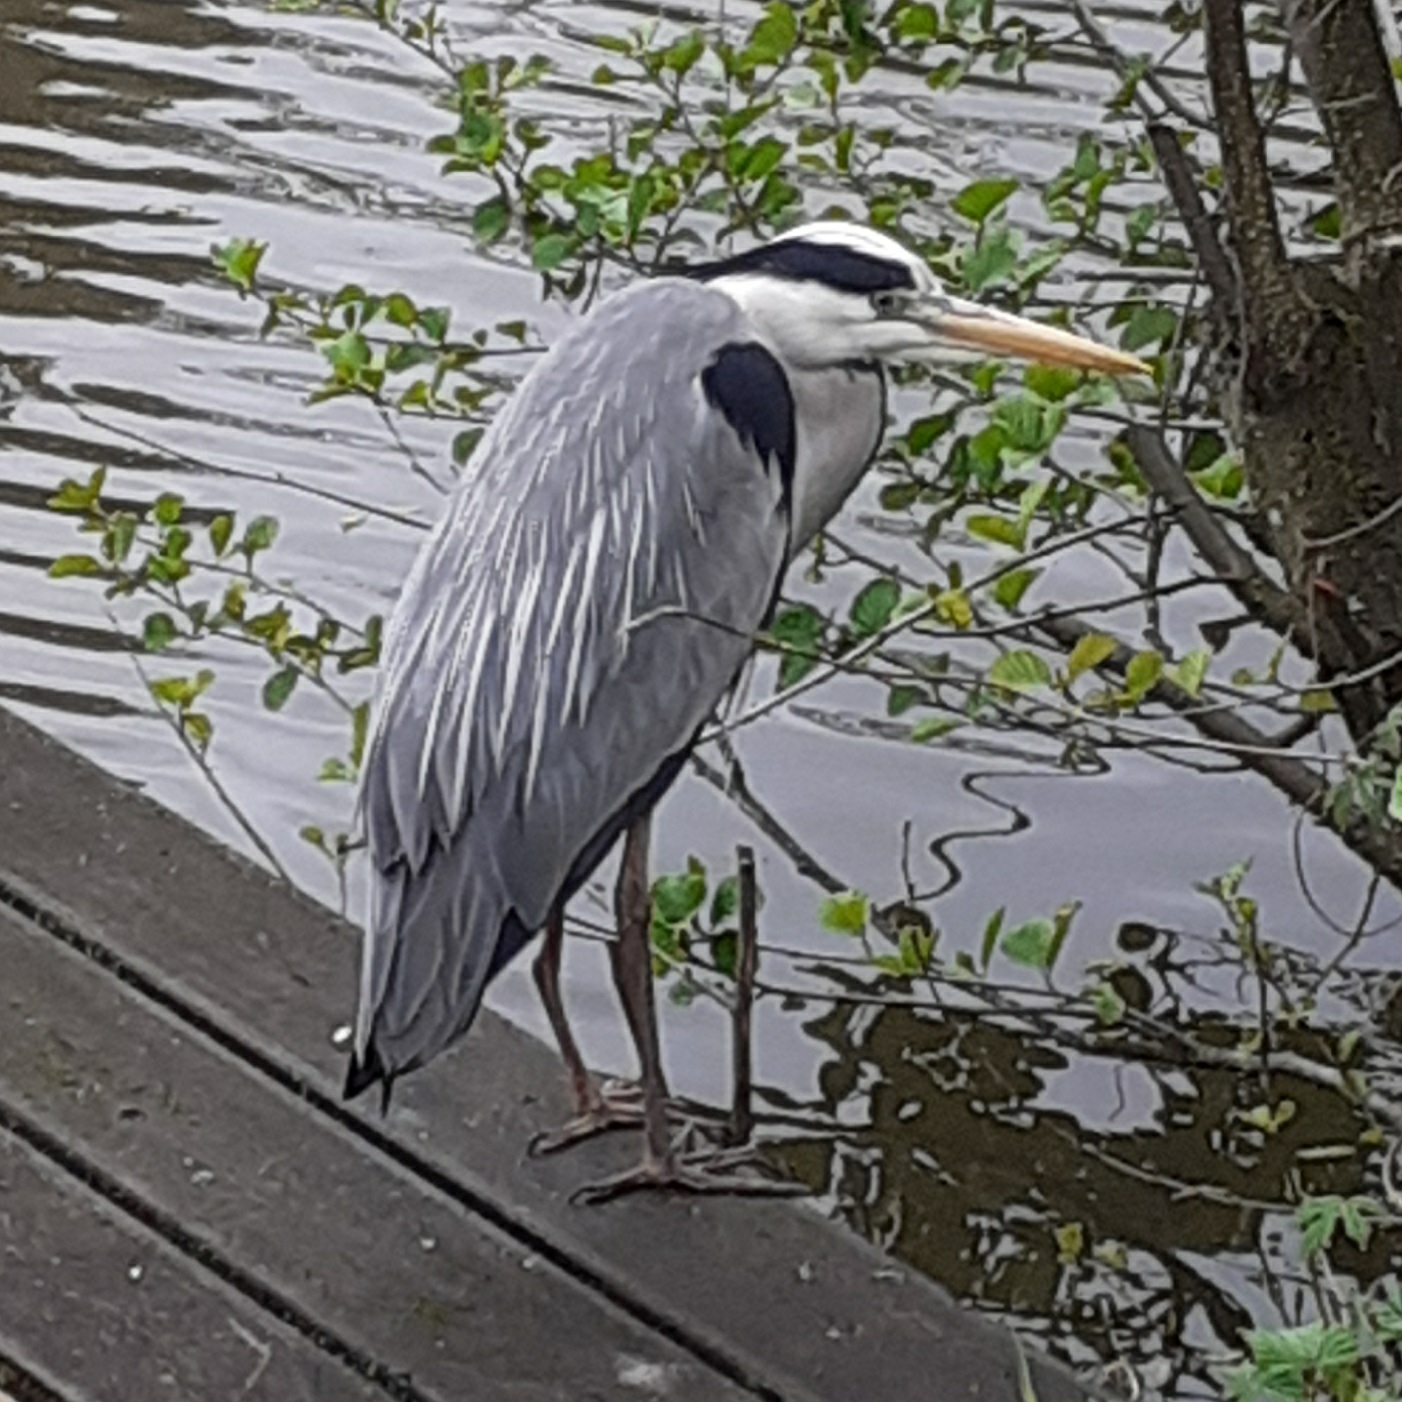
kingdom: Animalia
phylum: Chordata
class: Aves
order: Pelecaniformes
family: Ardeidae
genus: Ardea
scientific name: Ardea cinerea
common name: Grey heron
